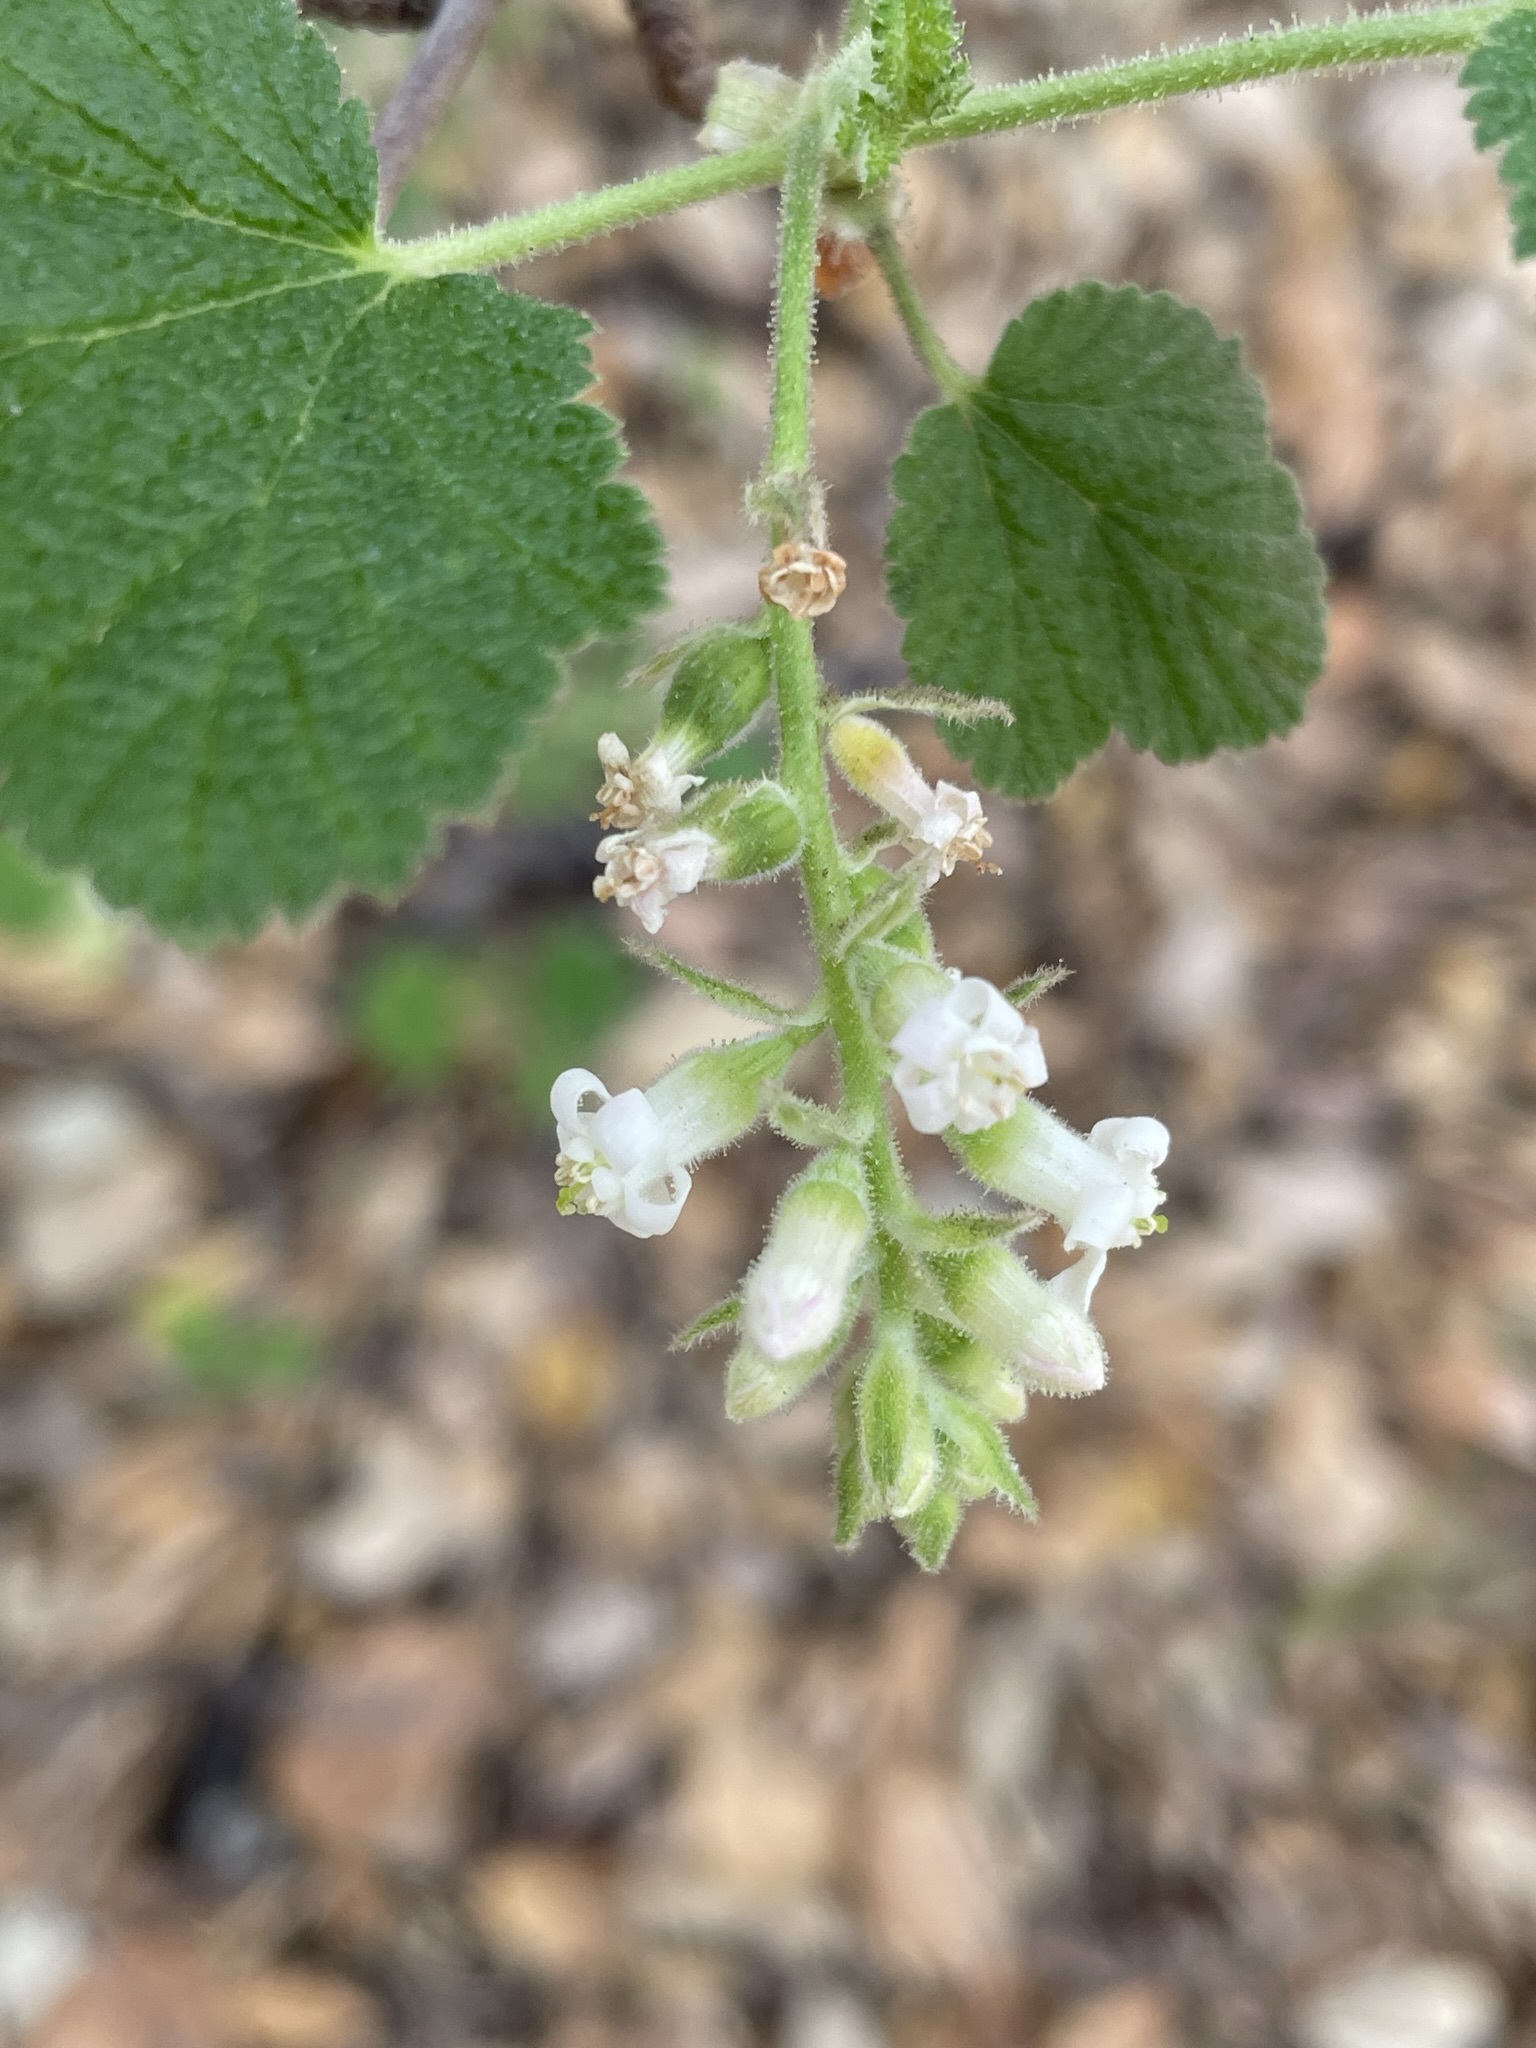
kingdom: Plantae
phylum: Tracheophyta
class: Magnoliopsida
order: Saxifragales
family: Grossulariaceae
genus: Ribes
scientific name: Ribes indecorum
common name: White-flower currant
